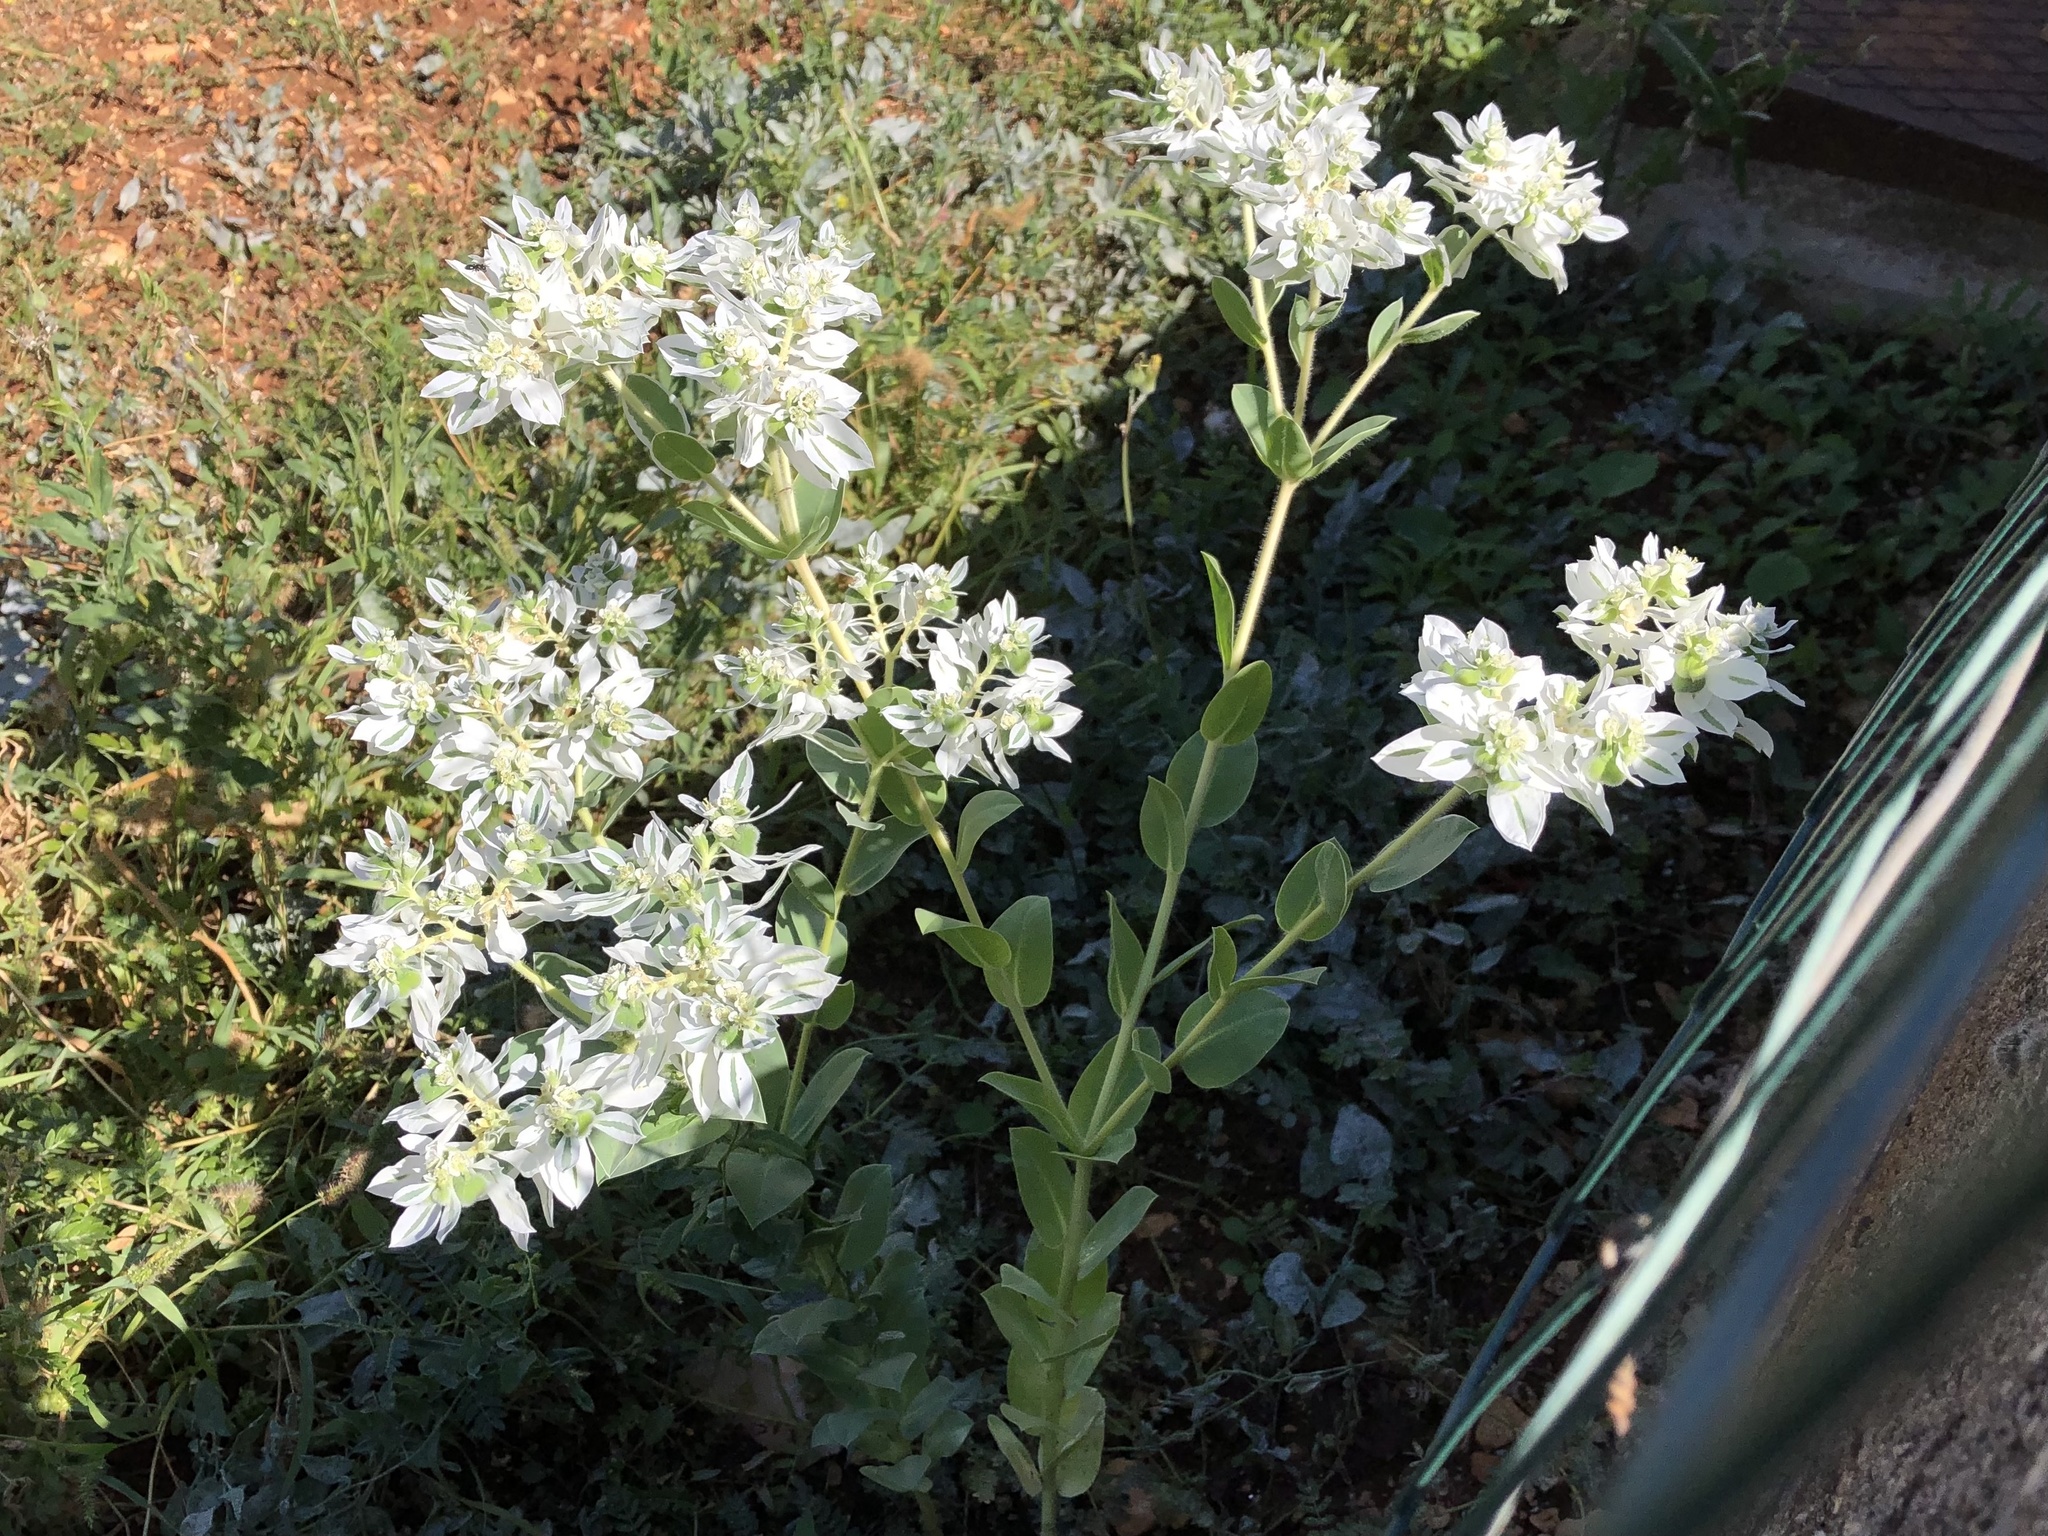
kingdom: Plantae
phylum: Tracheophyta
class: Magnoliopsida
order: Malpighiales
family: Euphorbiaceae
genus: Euphorbia
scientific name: Euphorbia marginata
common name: Ghostweed
